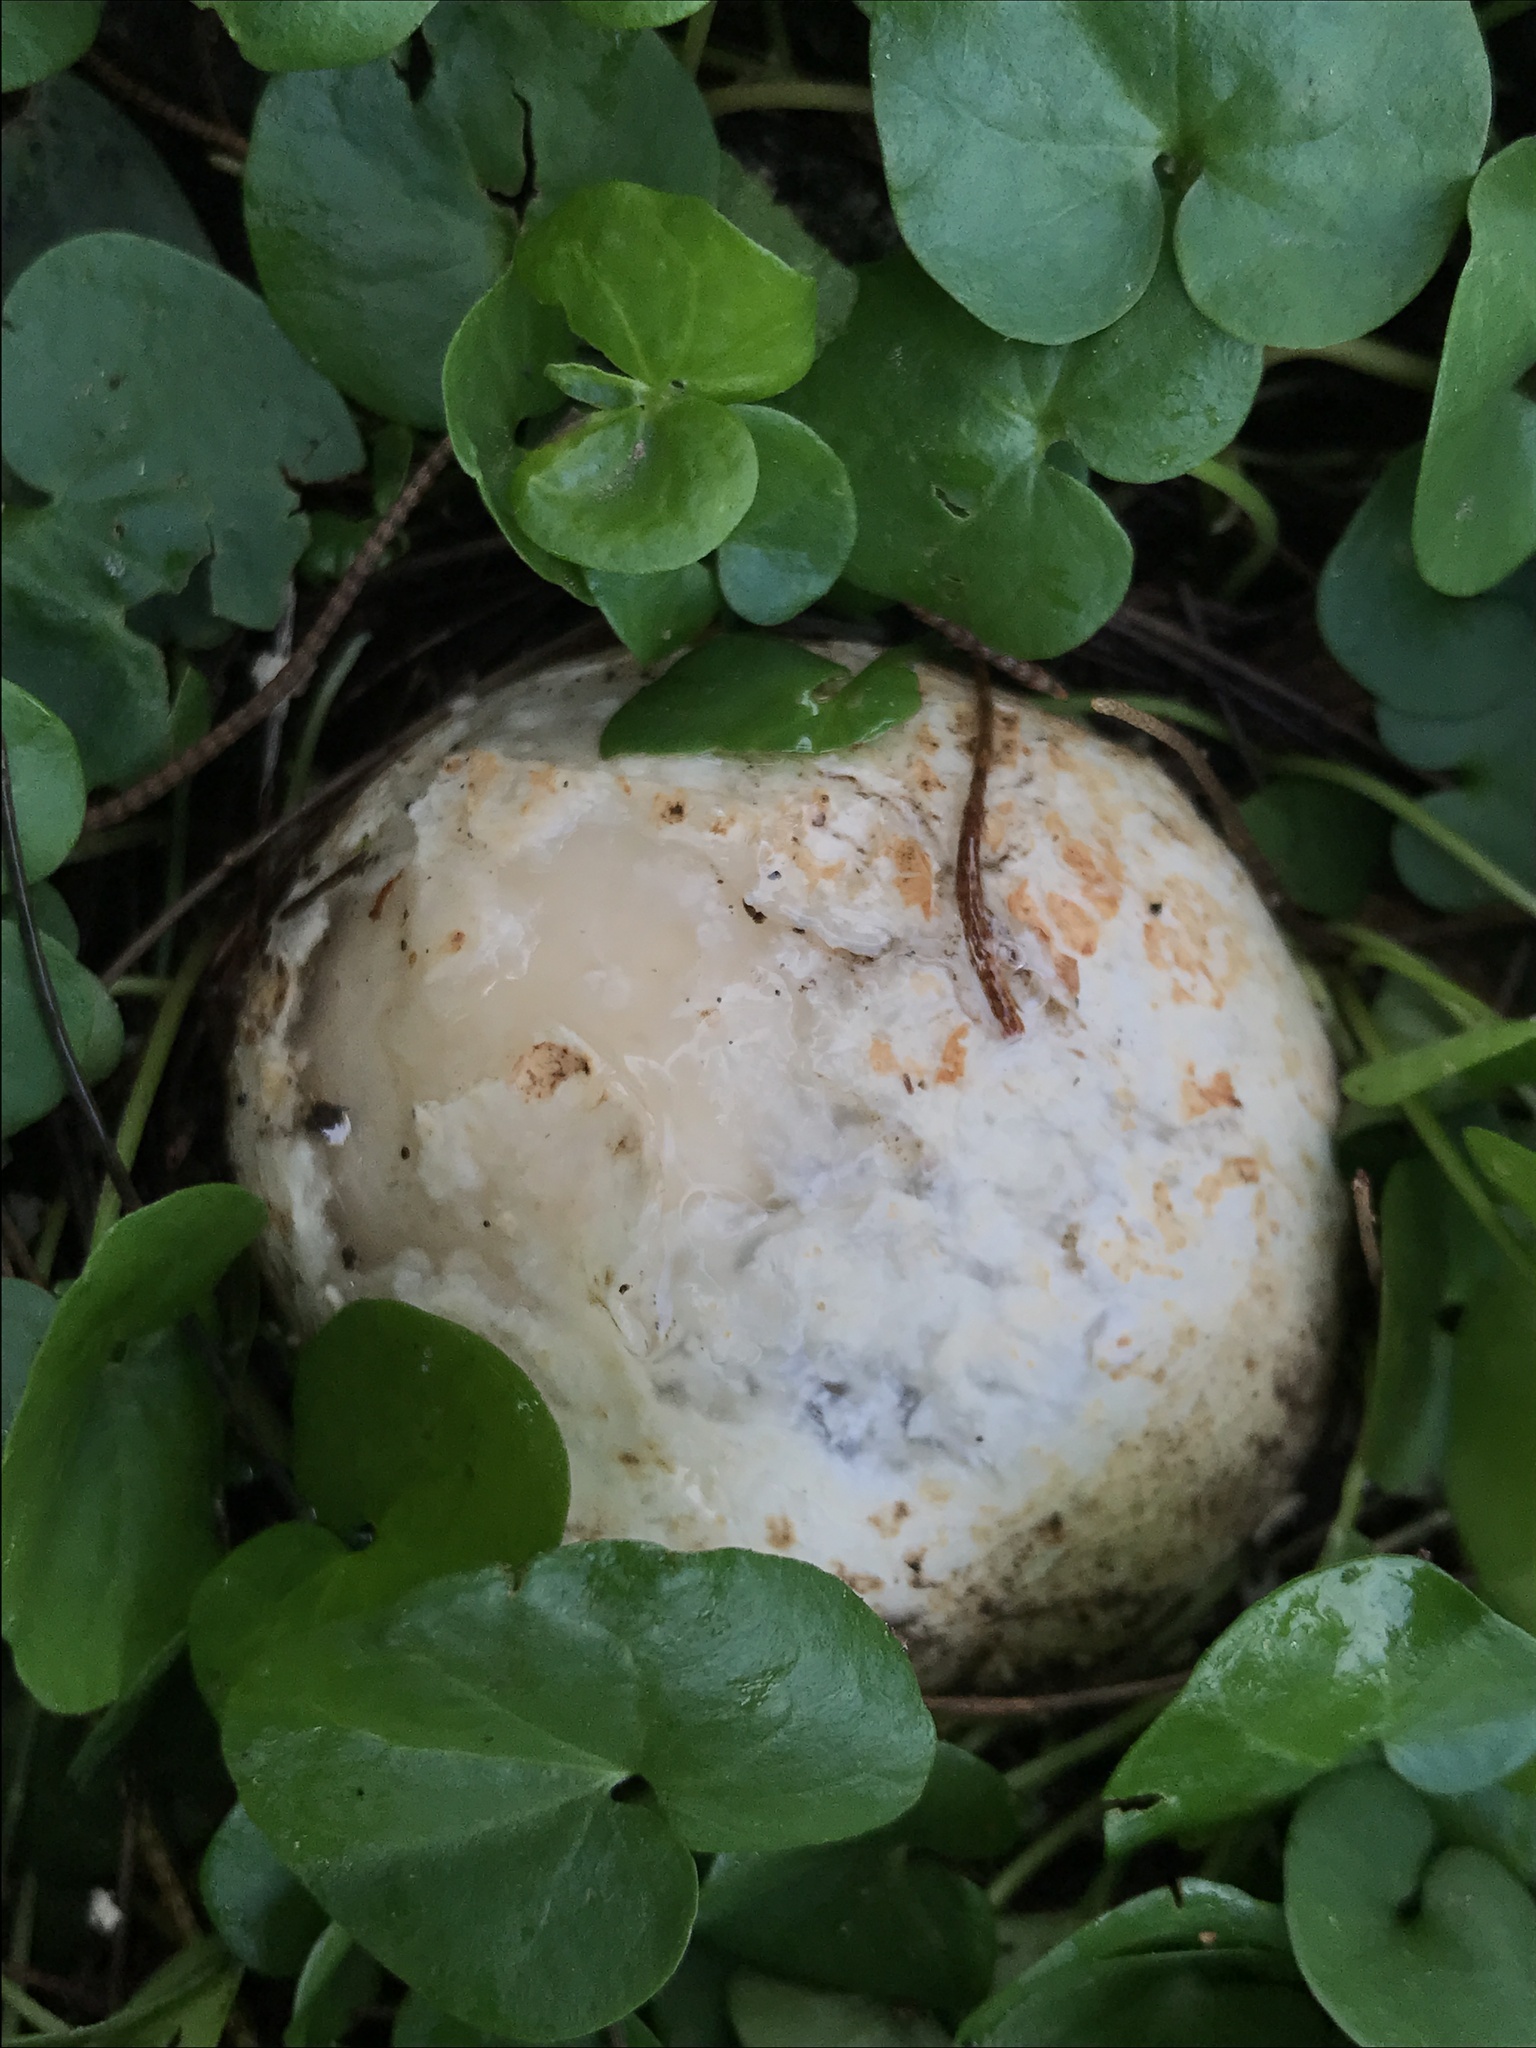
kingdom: Fungi
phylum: Basidiomycota
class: Agaricomycetes
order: Phallales
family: Phallaceae
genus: Itajahya
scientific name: Itajahya galericulata
